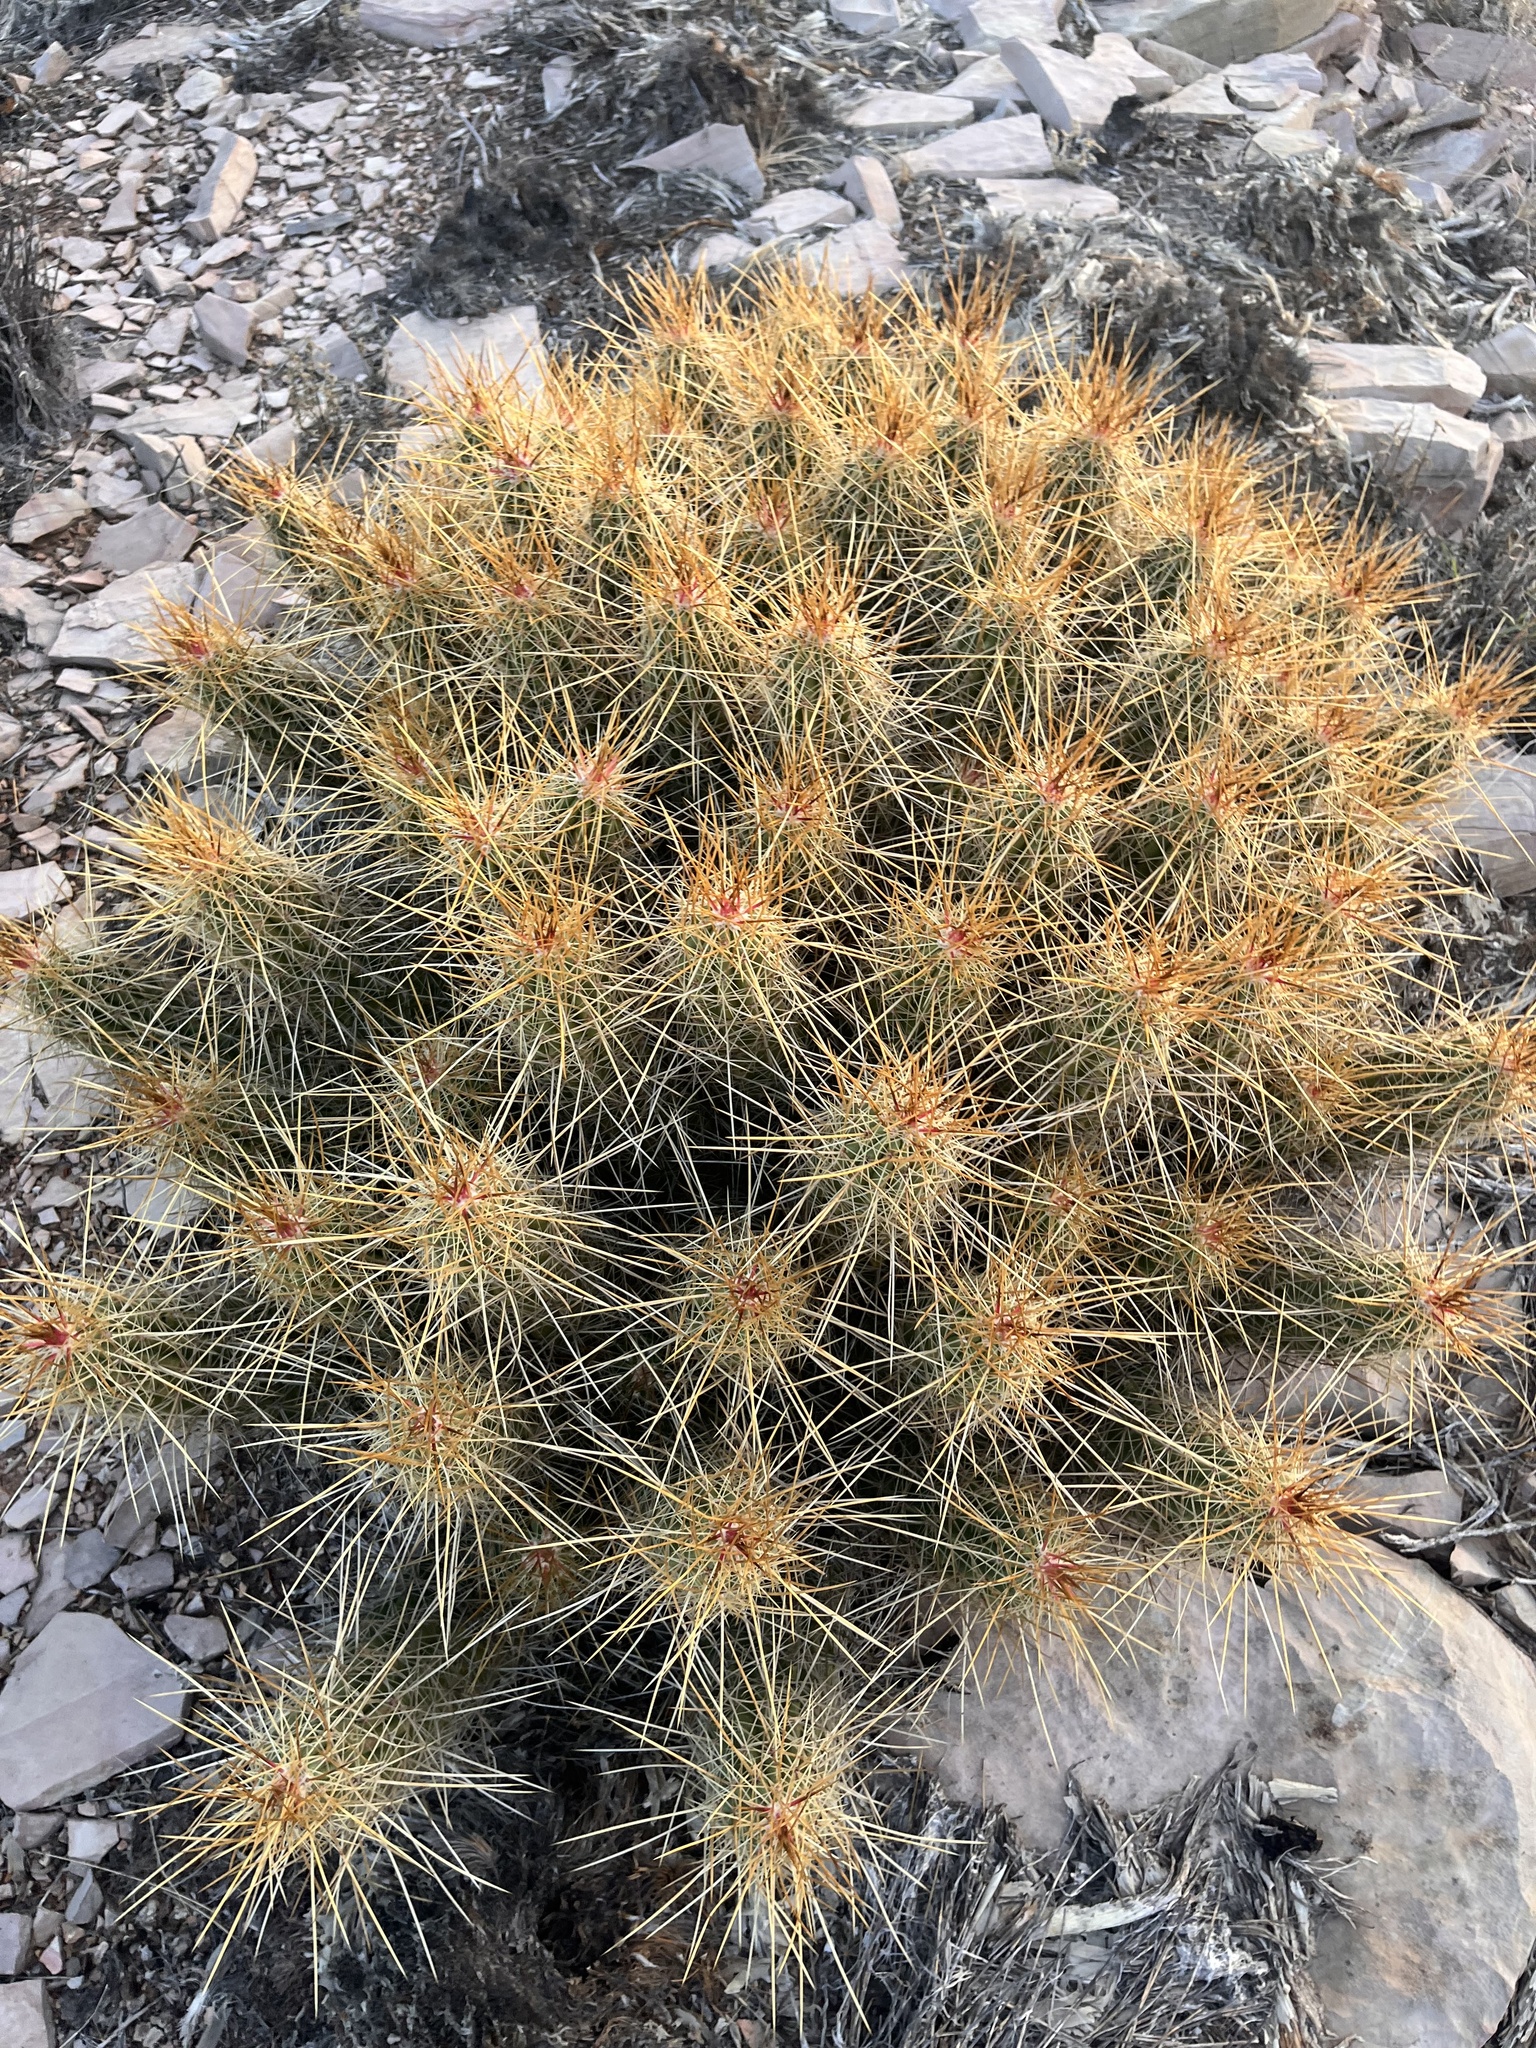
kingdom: Plantae
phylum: Tracheophyta
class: Magnoliopsida
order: Caryophyllales
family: Cactaceae
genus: Echinocereus
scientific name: Echinocereus stramineus
